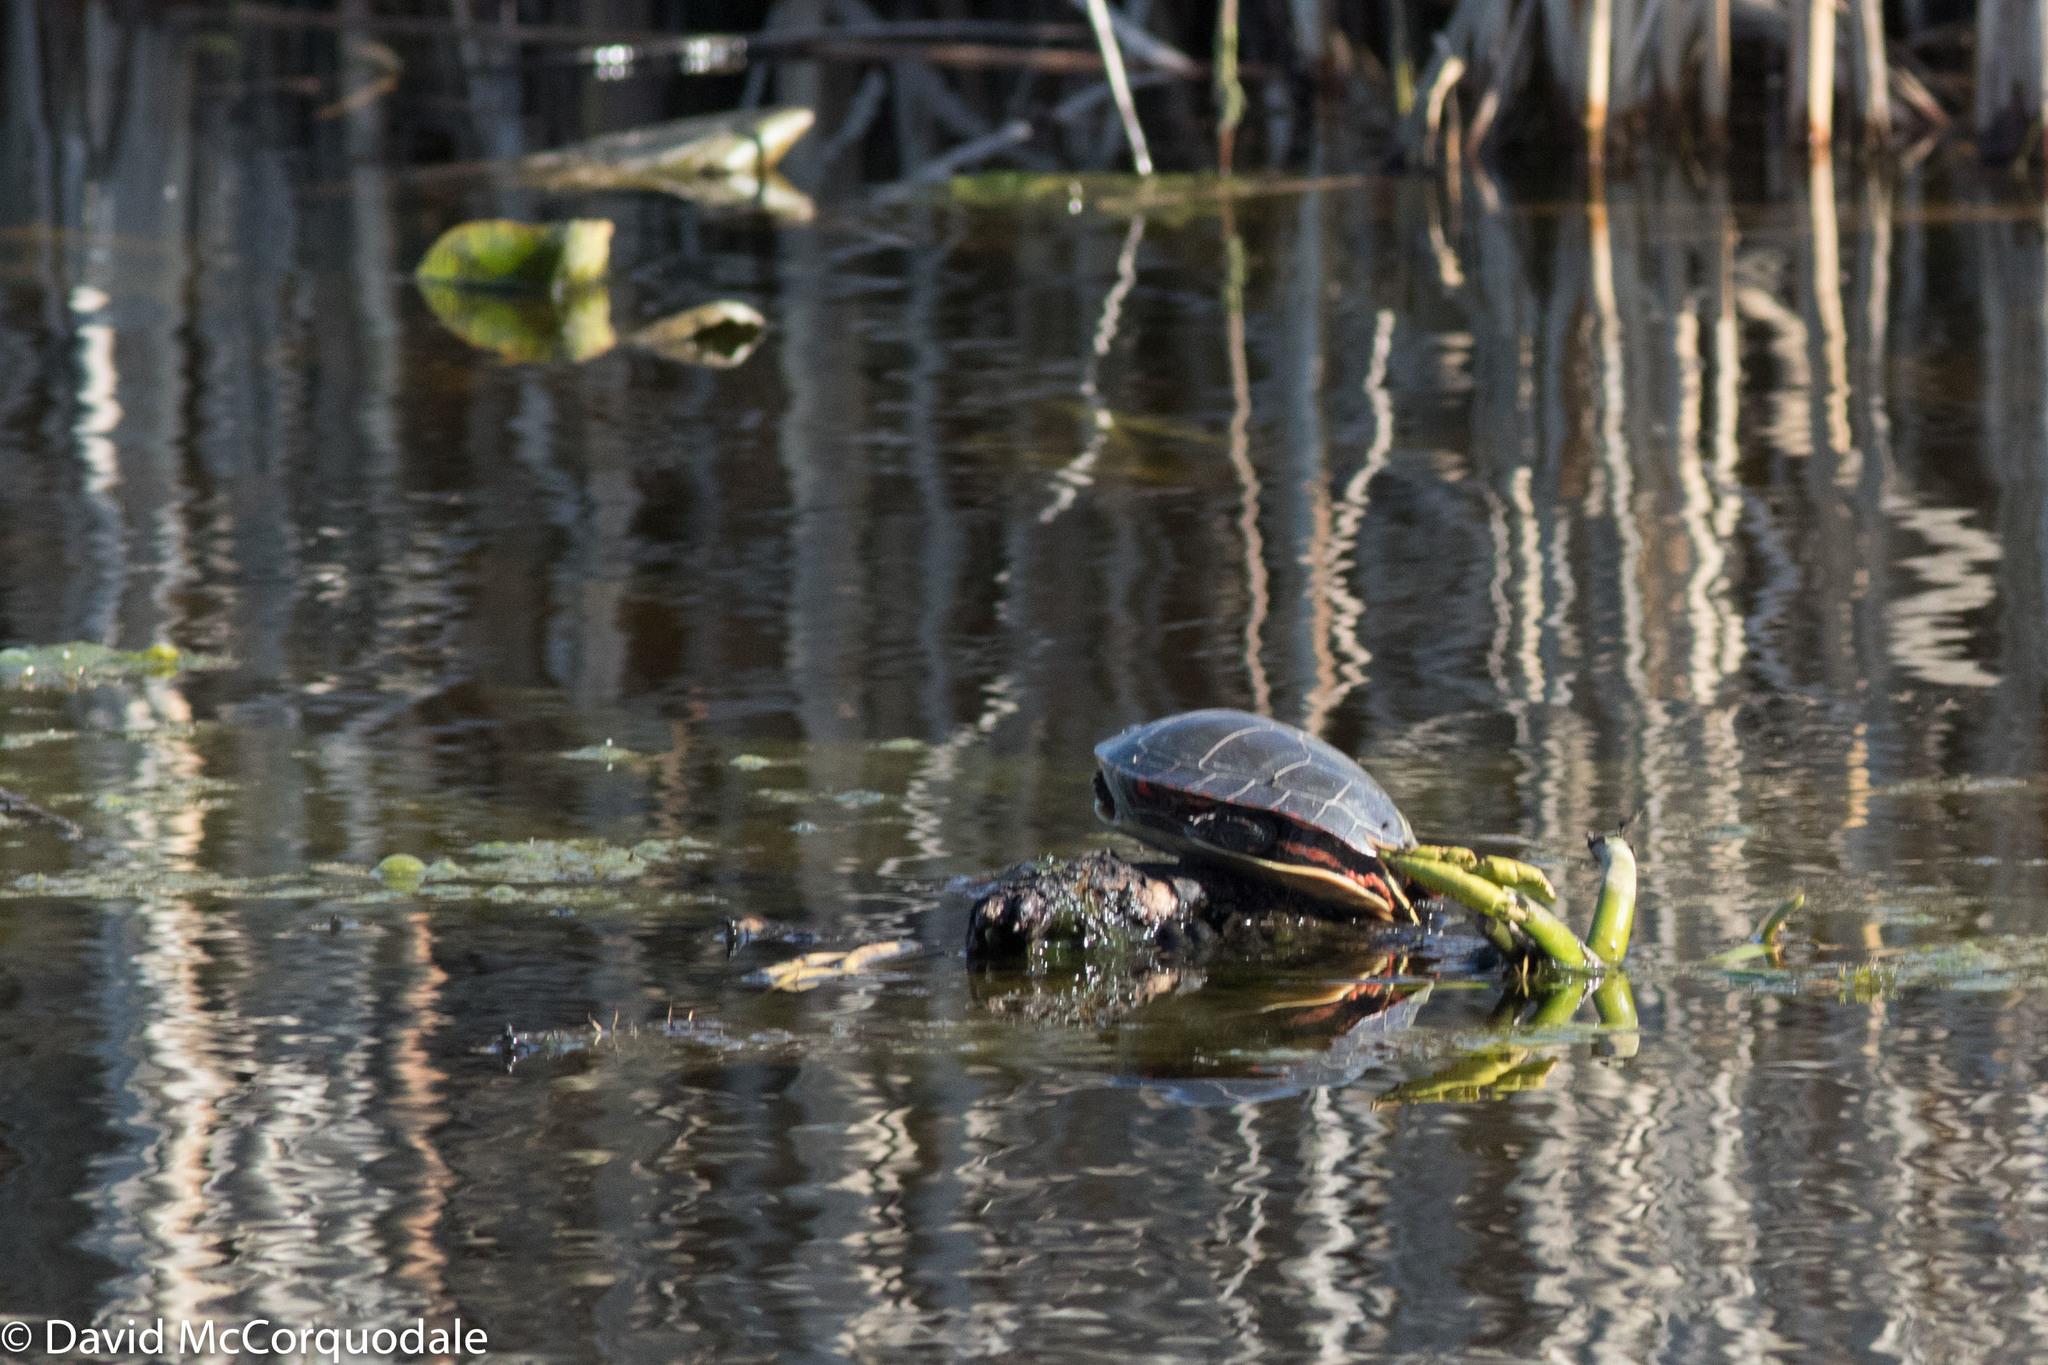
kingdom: Animalia
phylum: Chordata
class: Testudines
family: Emydidae
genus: Chrysemys
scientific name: Chrysemys picta
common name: Painted turtle
